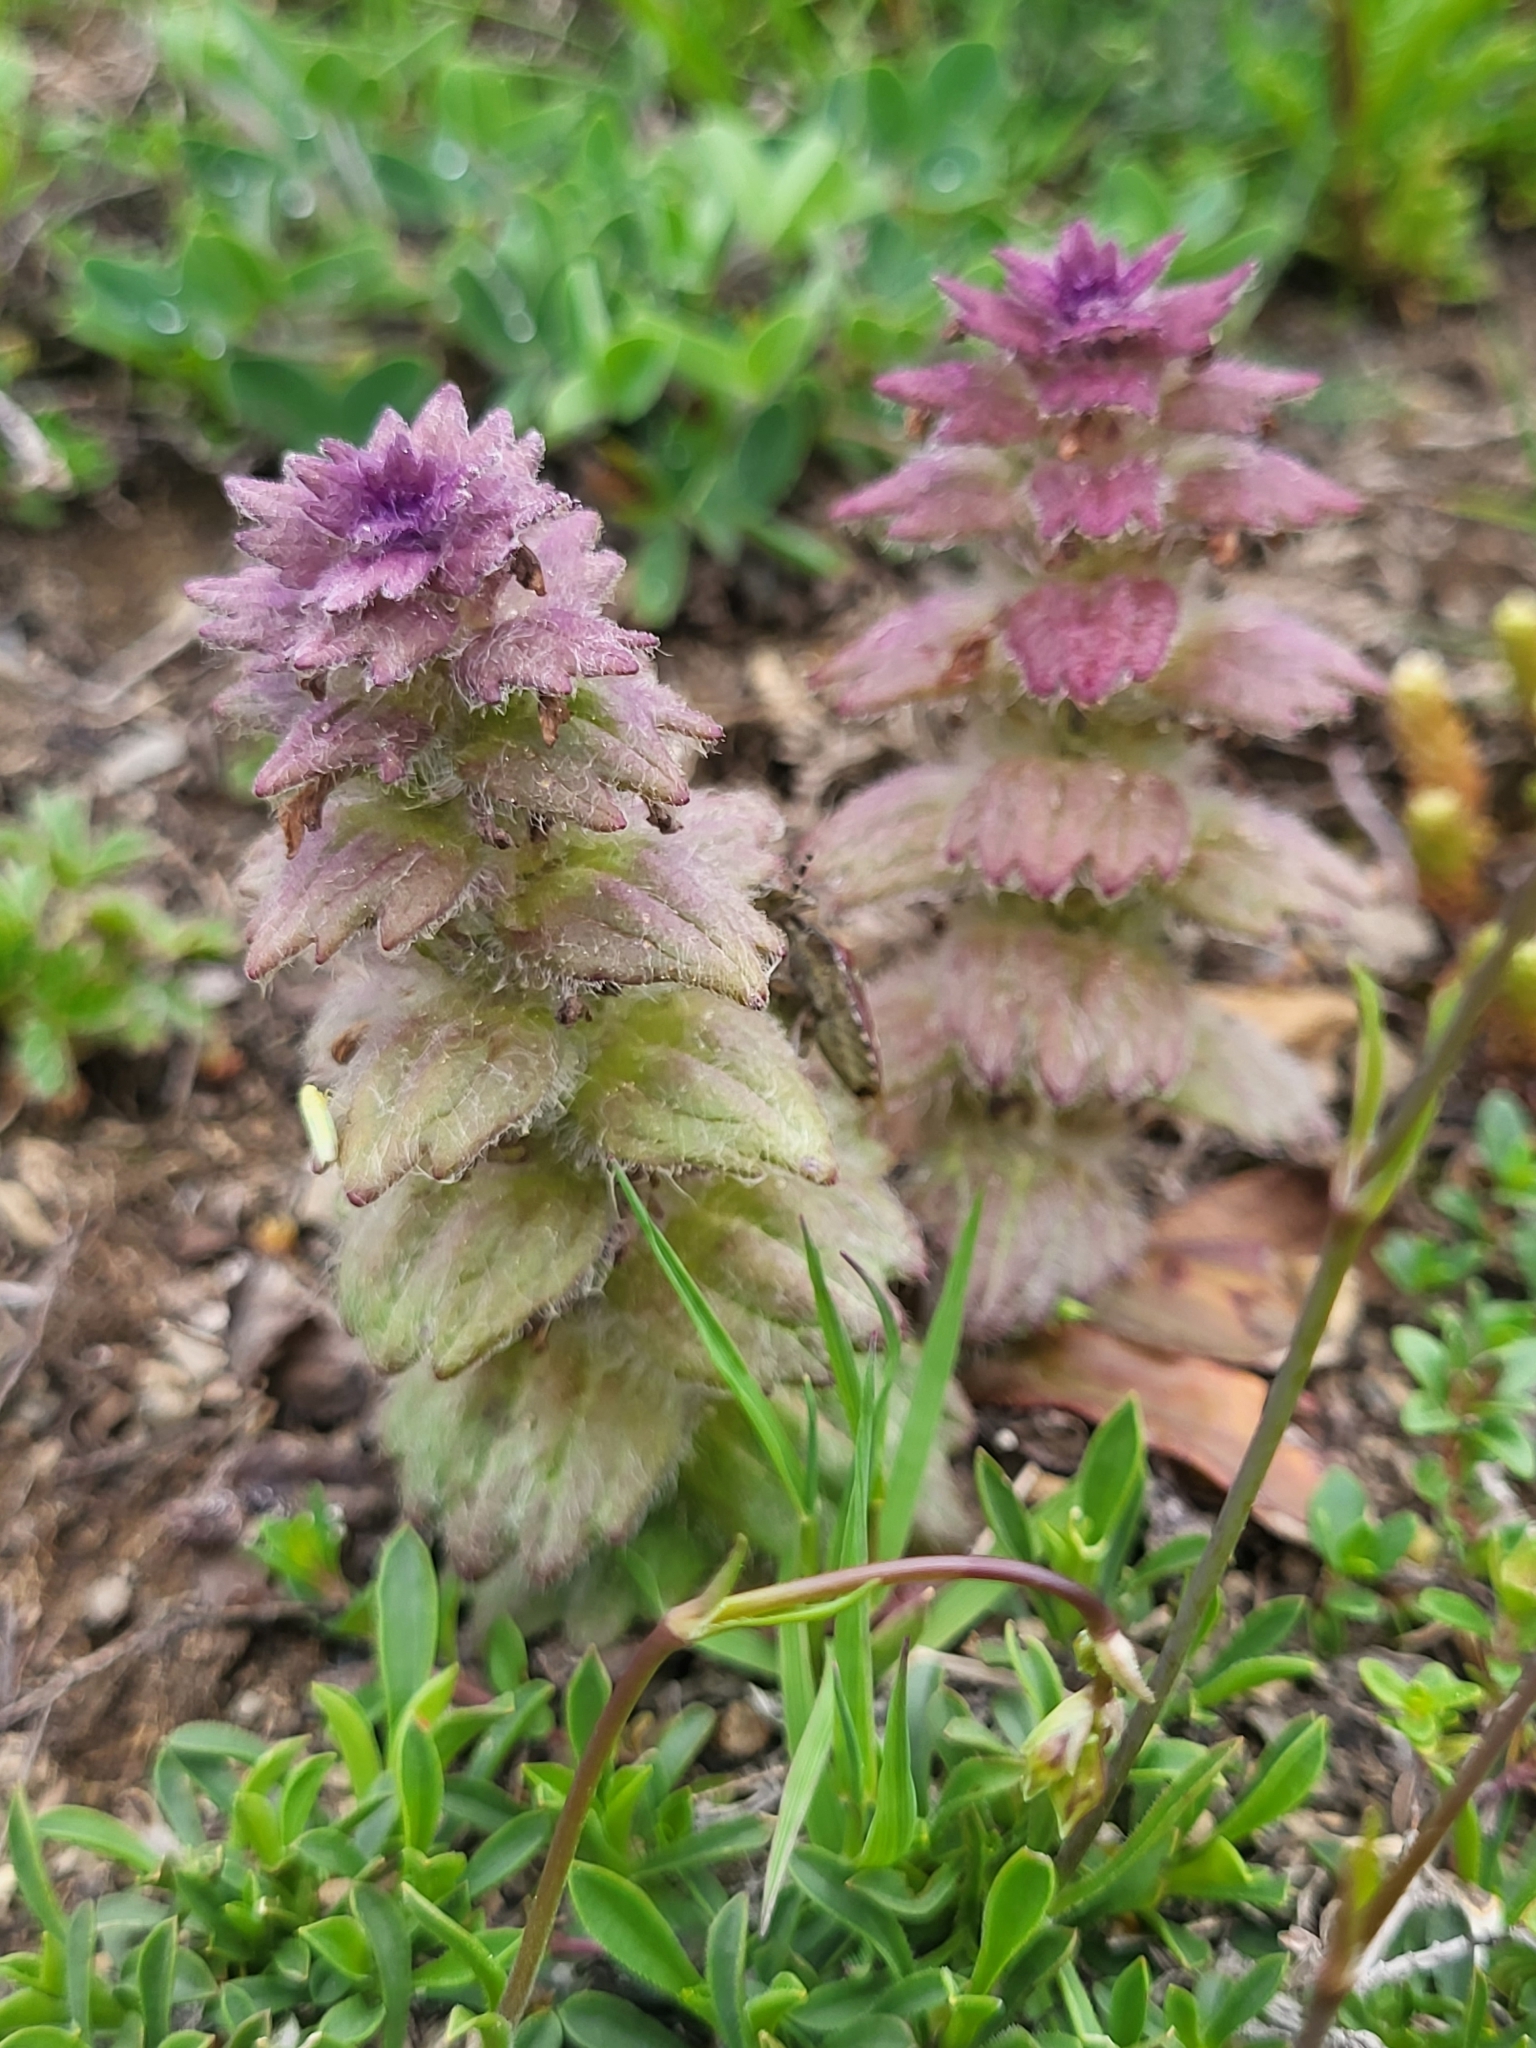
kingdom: Plantae
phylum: Tracheophyta
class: Magnoliopsida
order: Lamiales
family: Lamiaceae
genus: Ajuga
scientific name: Ajuga orientalis
